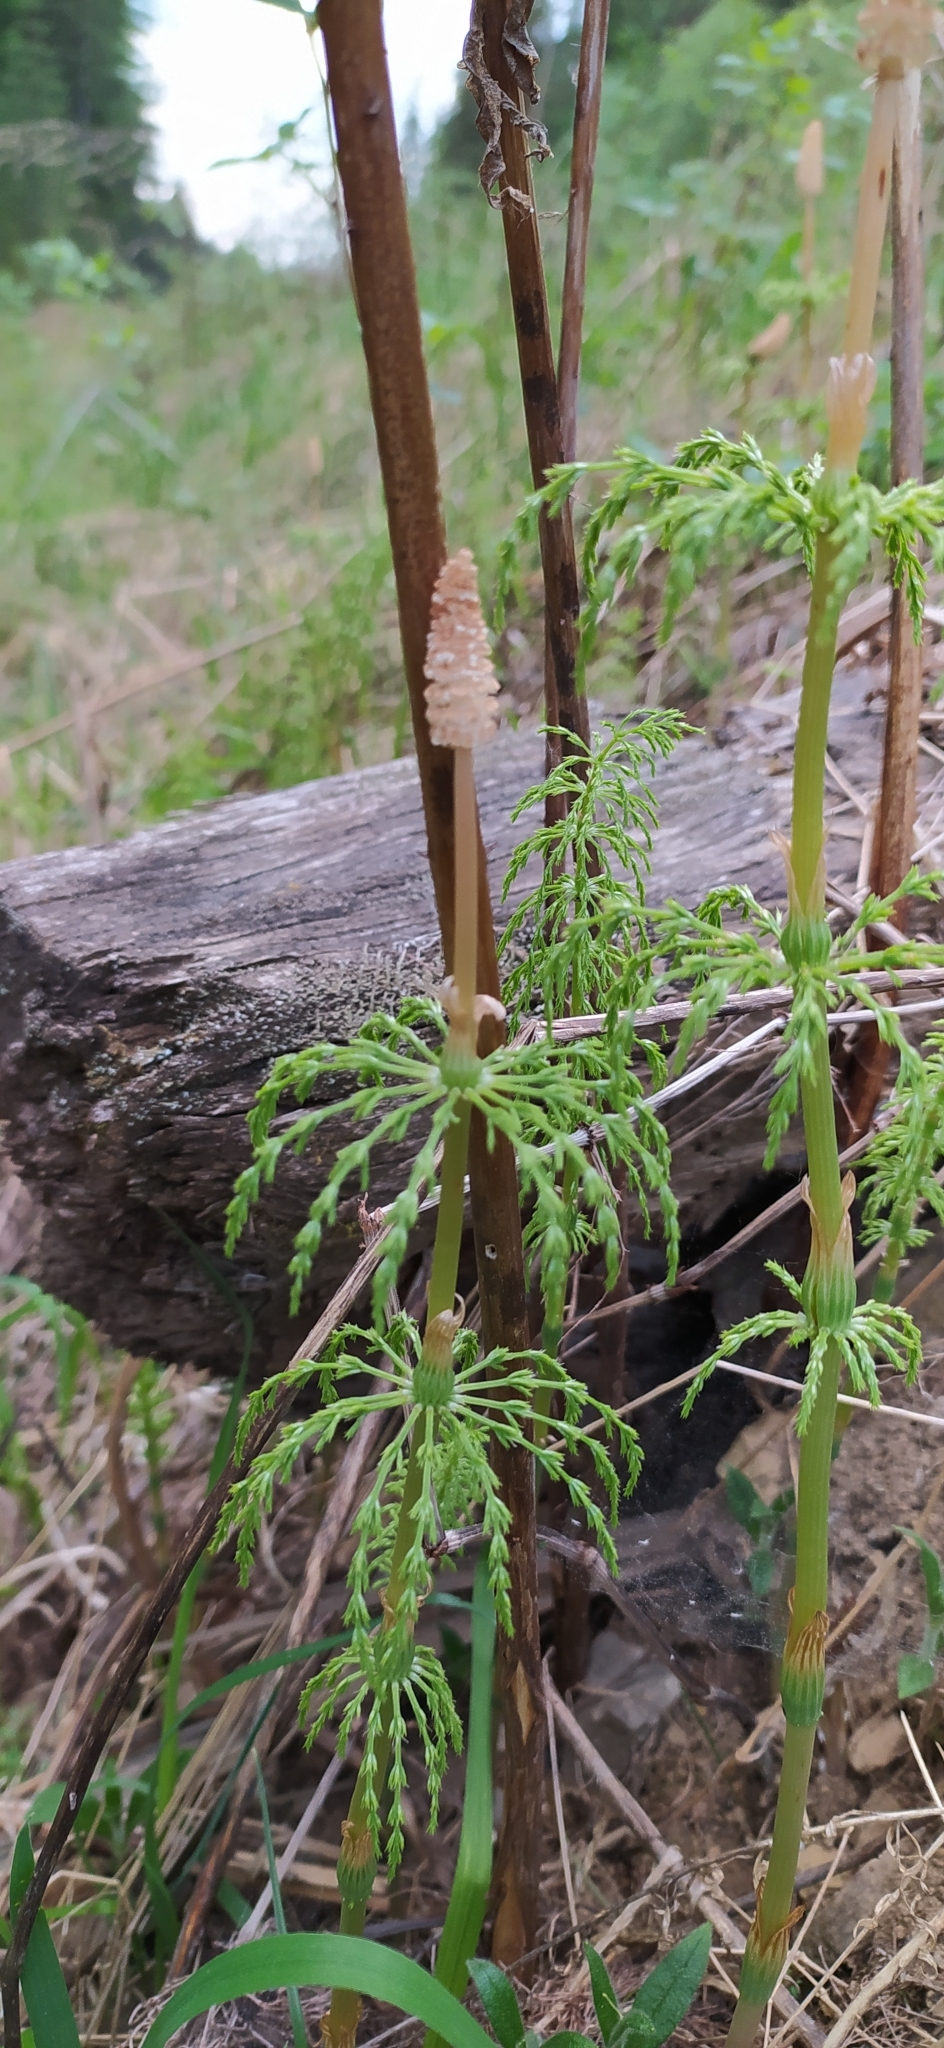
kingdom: Plantae
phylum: Tracheophyta
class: Polypodiopsida
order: Equisetales
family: Equisetaceae
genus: Equisetum
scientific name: Equisetum sylvaticum
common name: Wood horsetail
